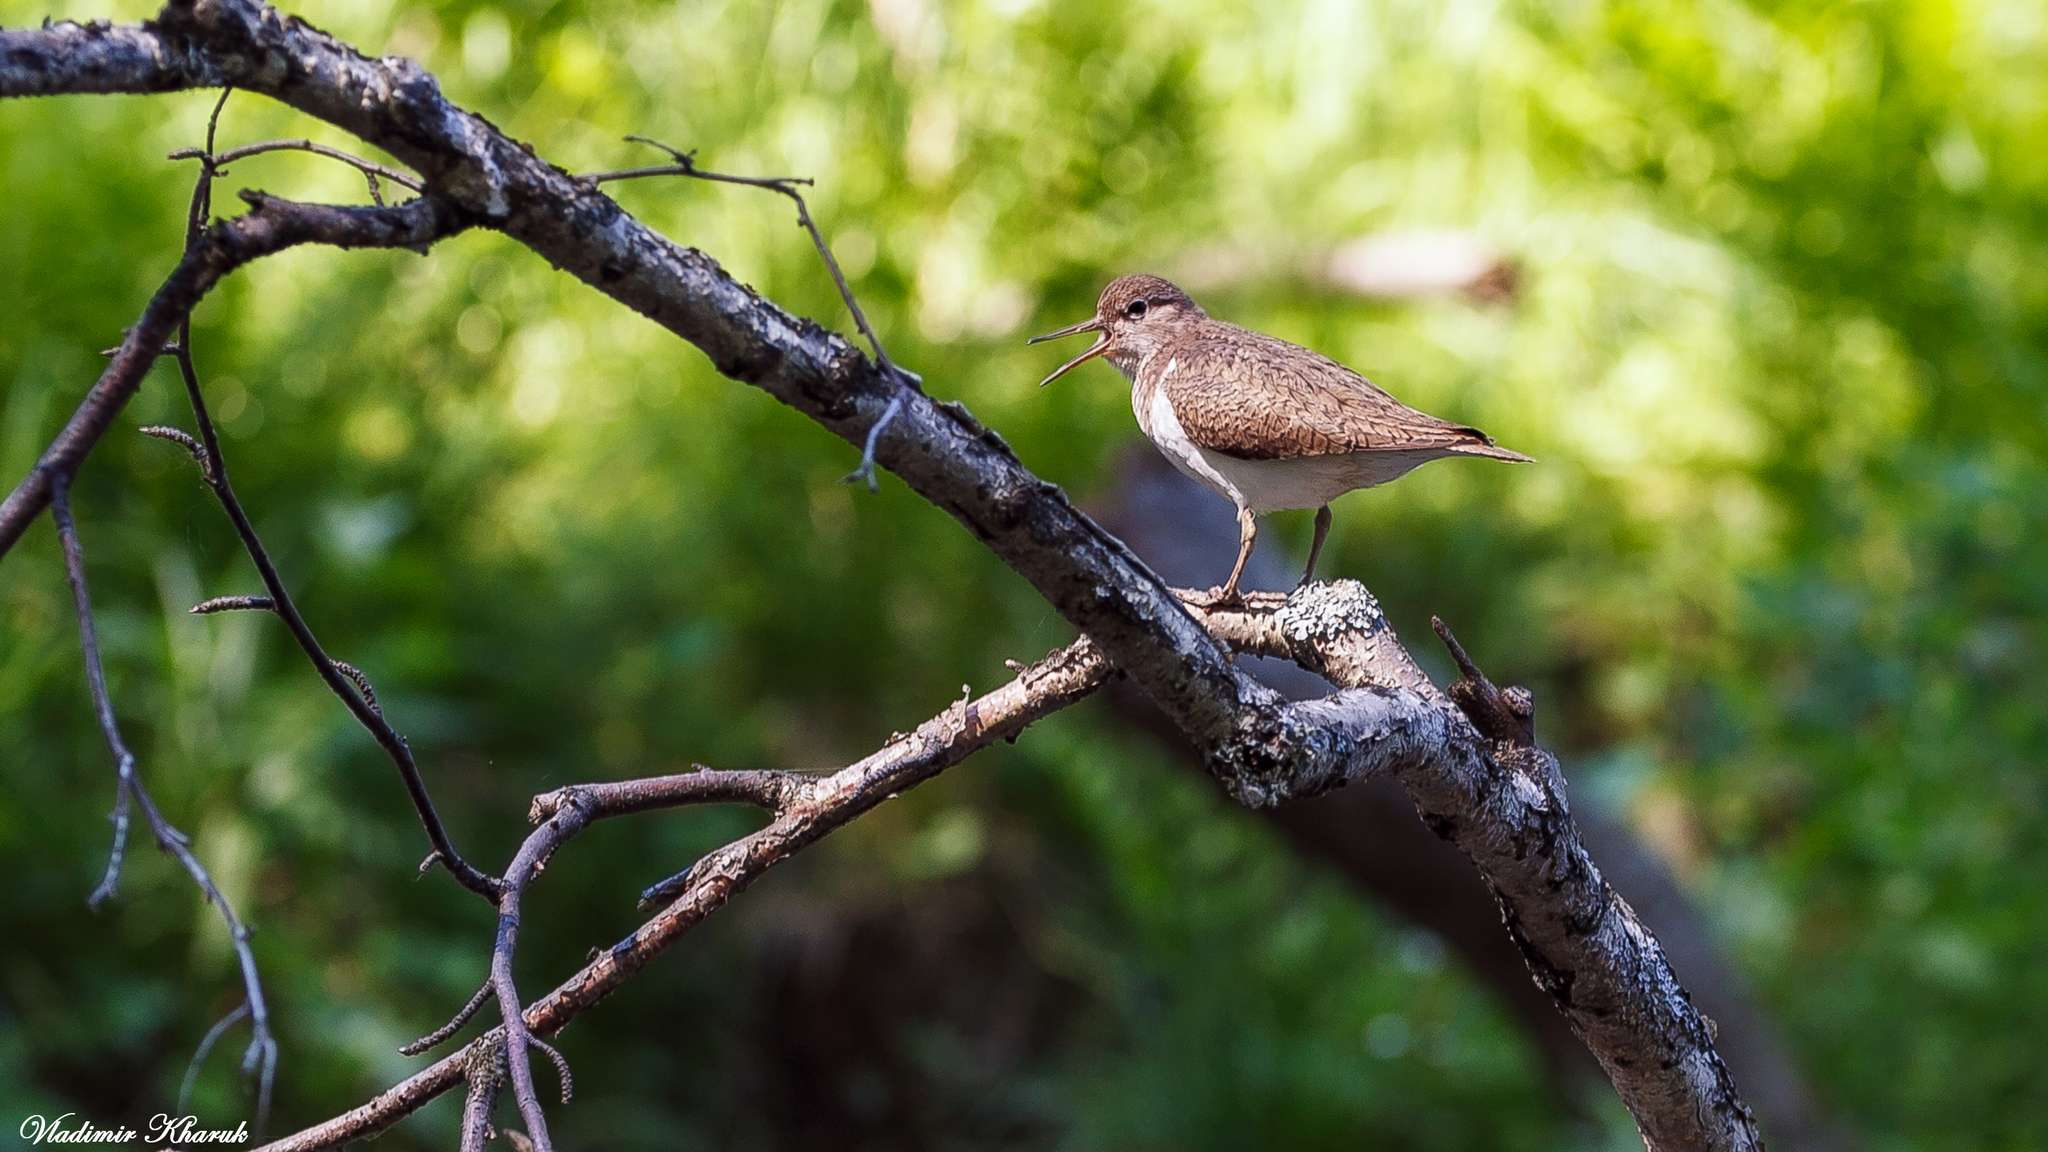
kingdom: Animalia
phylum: Chordata
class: Aves
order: Charadriiformes
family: Scolopacidae
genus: Actitis
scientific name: Actitis hypoleucos
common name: Common sandpiper
